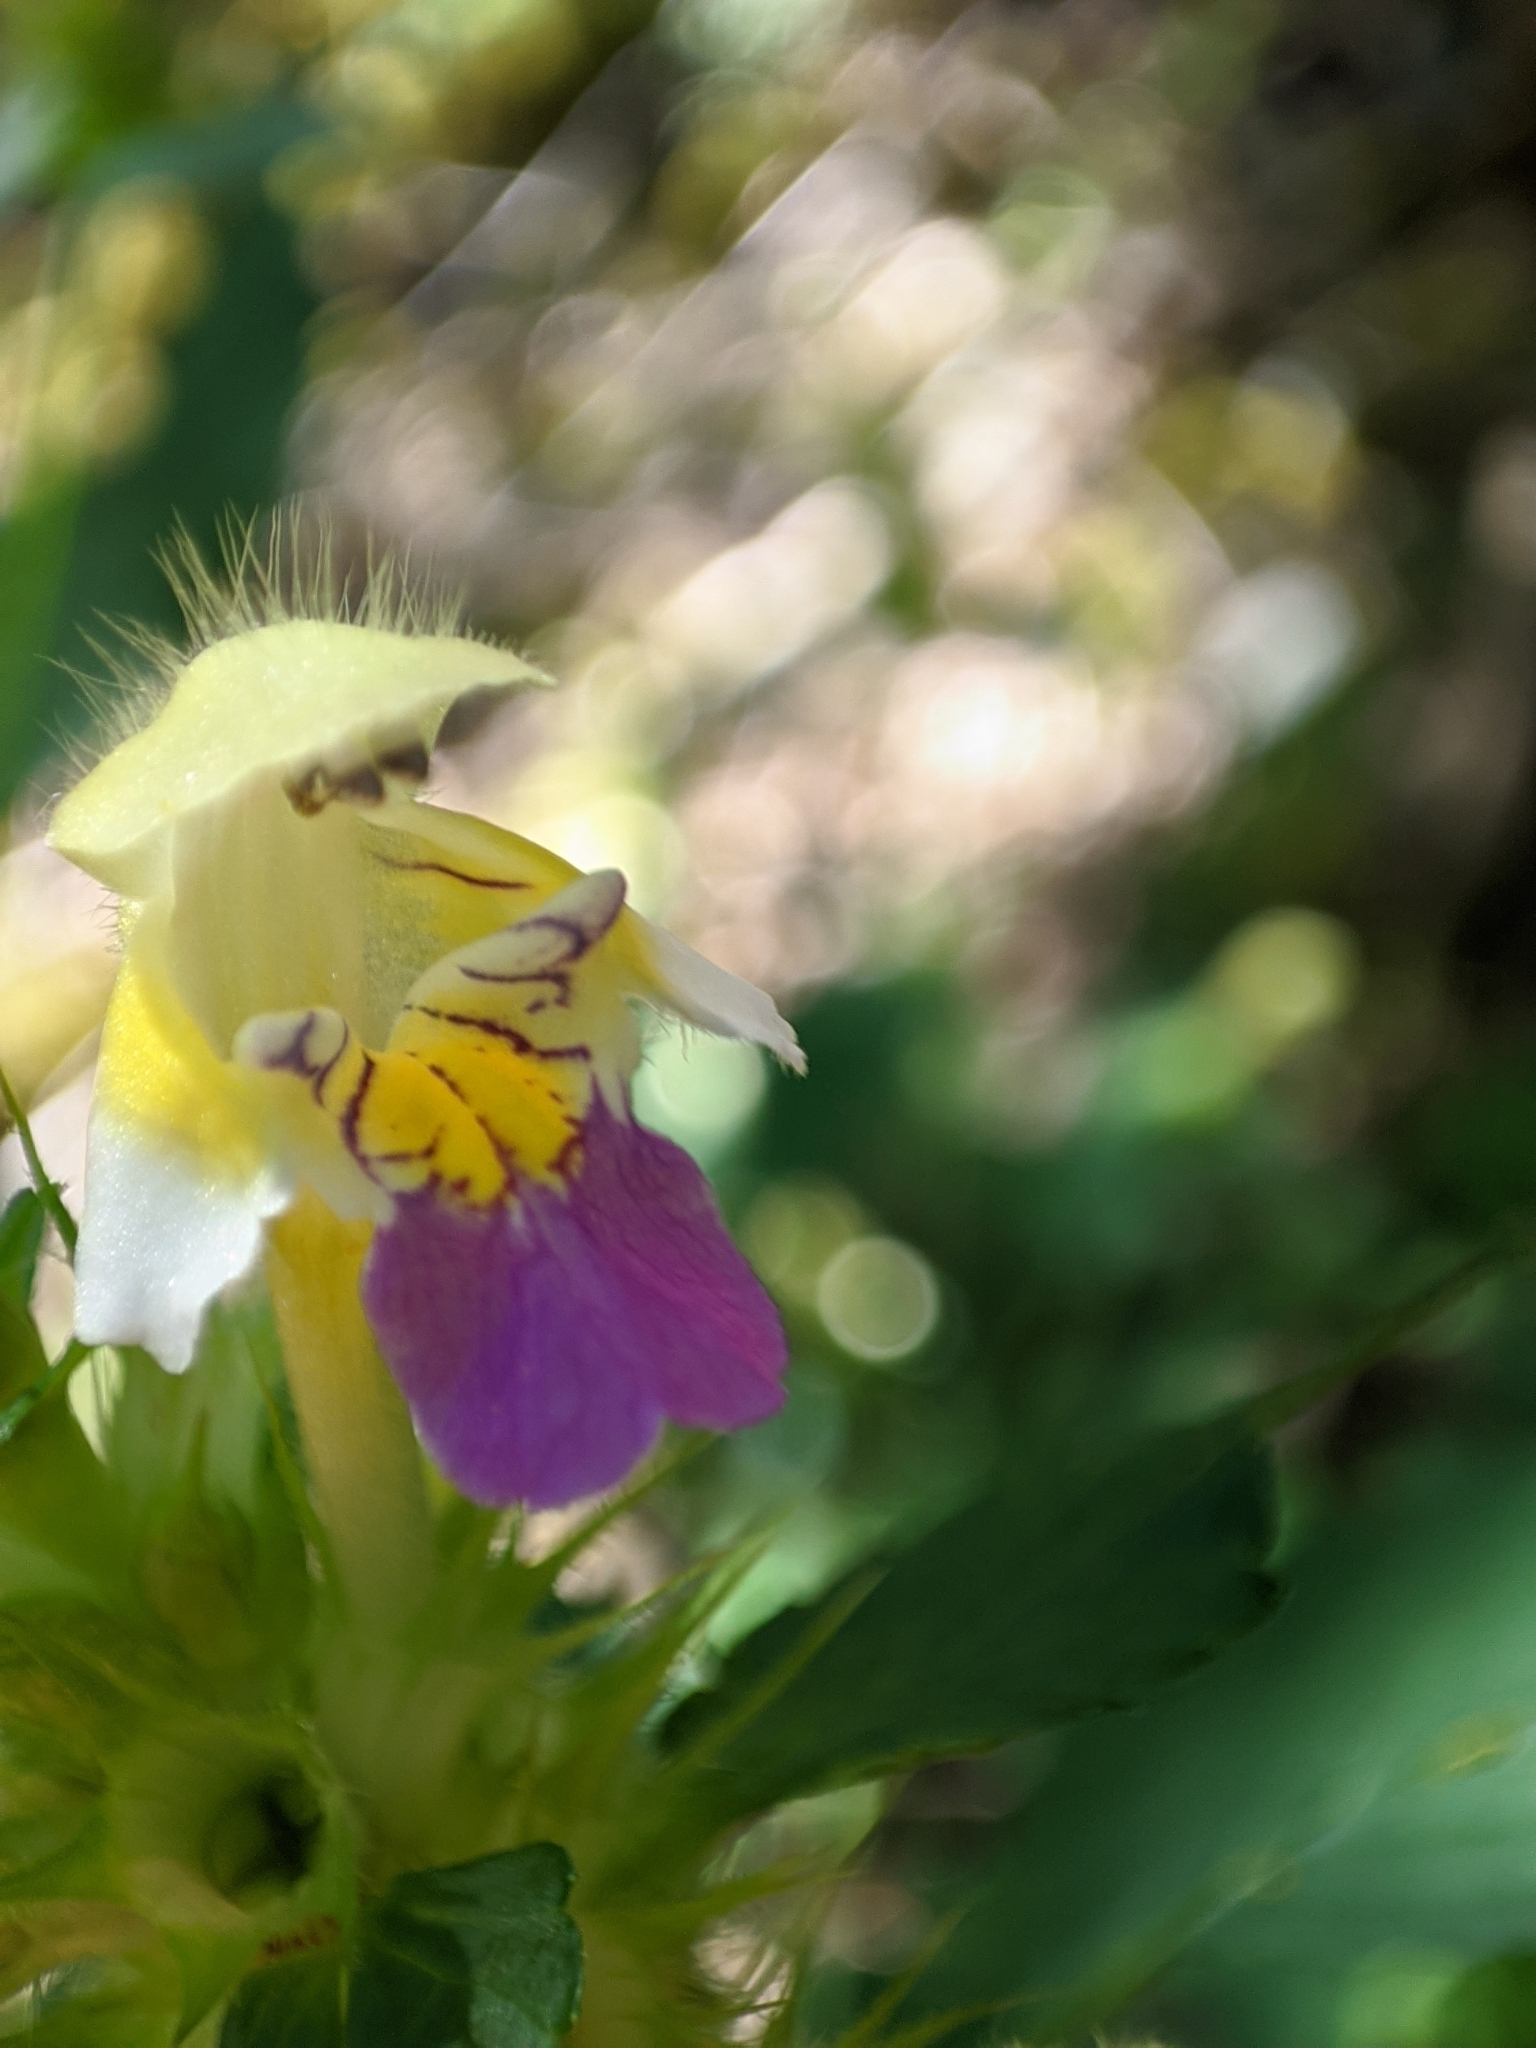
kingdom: Plantae
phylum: Tracheophyta
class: Magnoliopsida
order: Lamiales
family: Lamiaceae
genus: Galeopsis
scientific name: Galeopsis speciosa
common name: Large-flowered hemp-nettle
